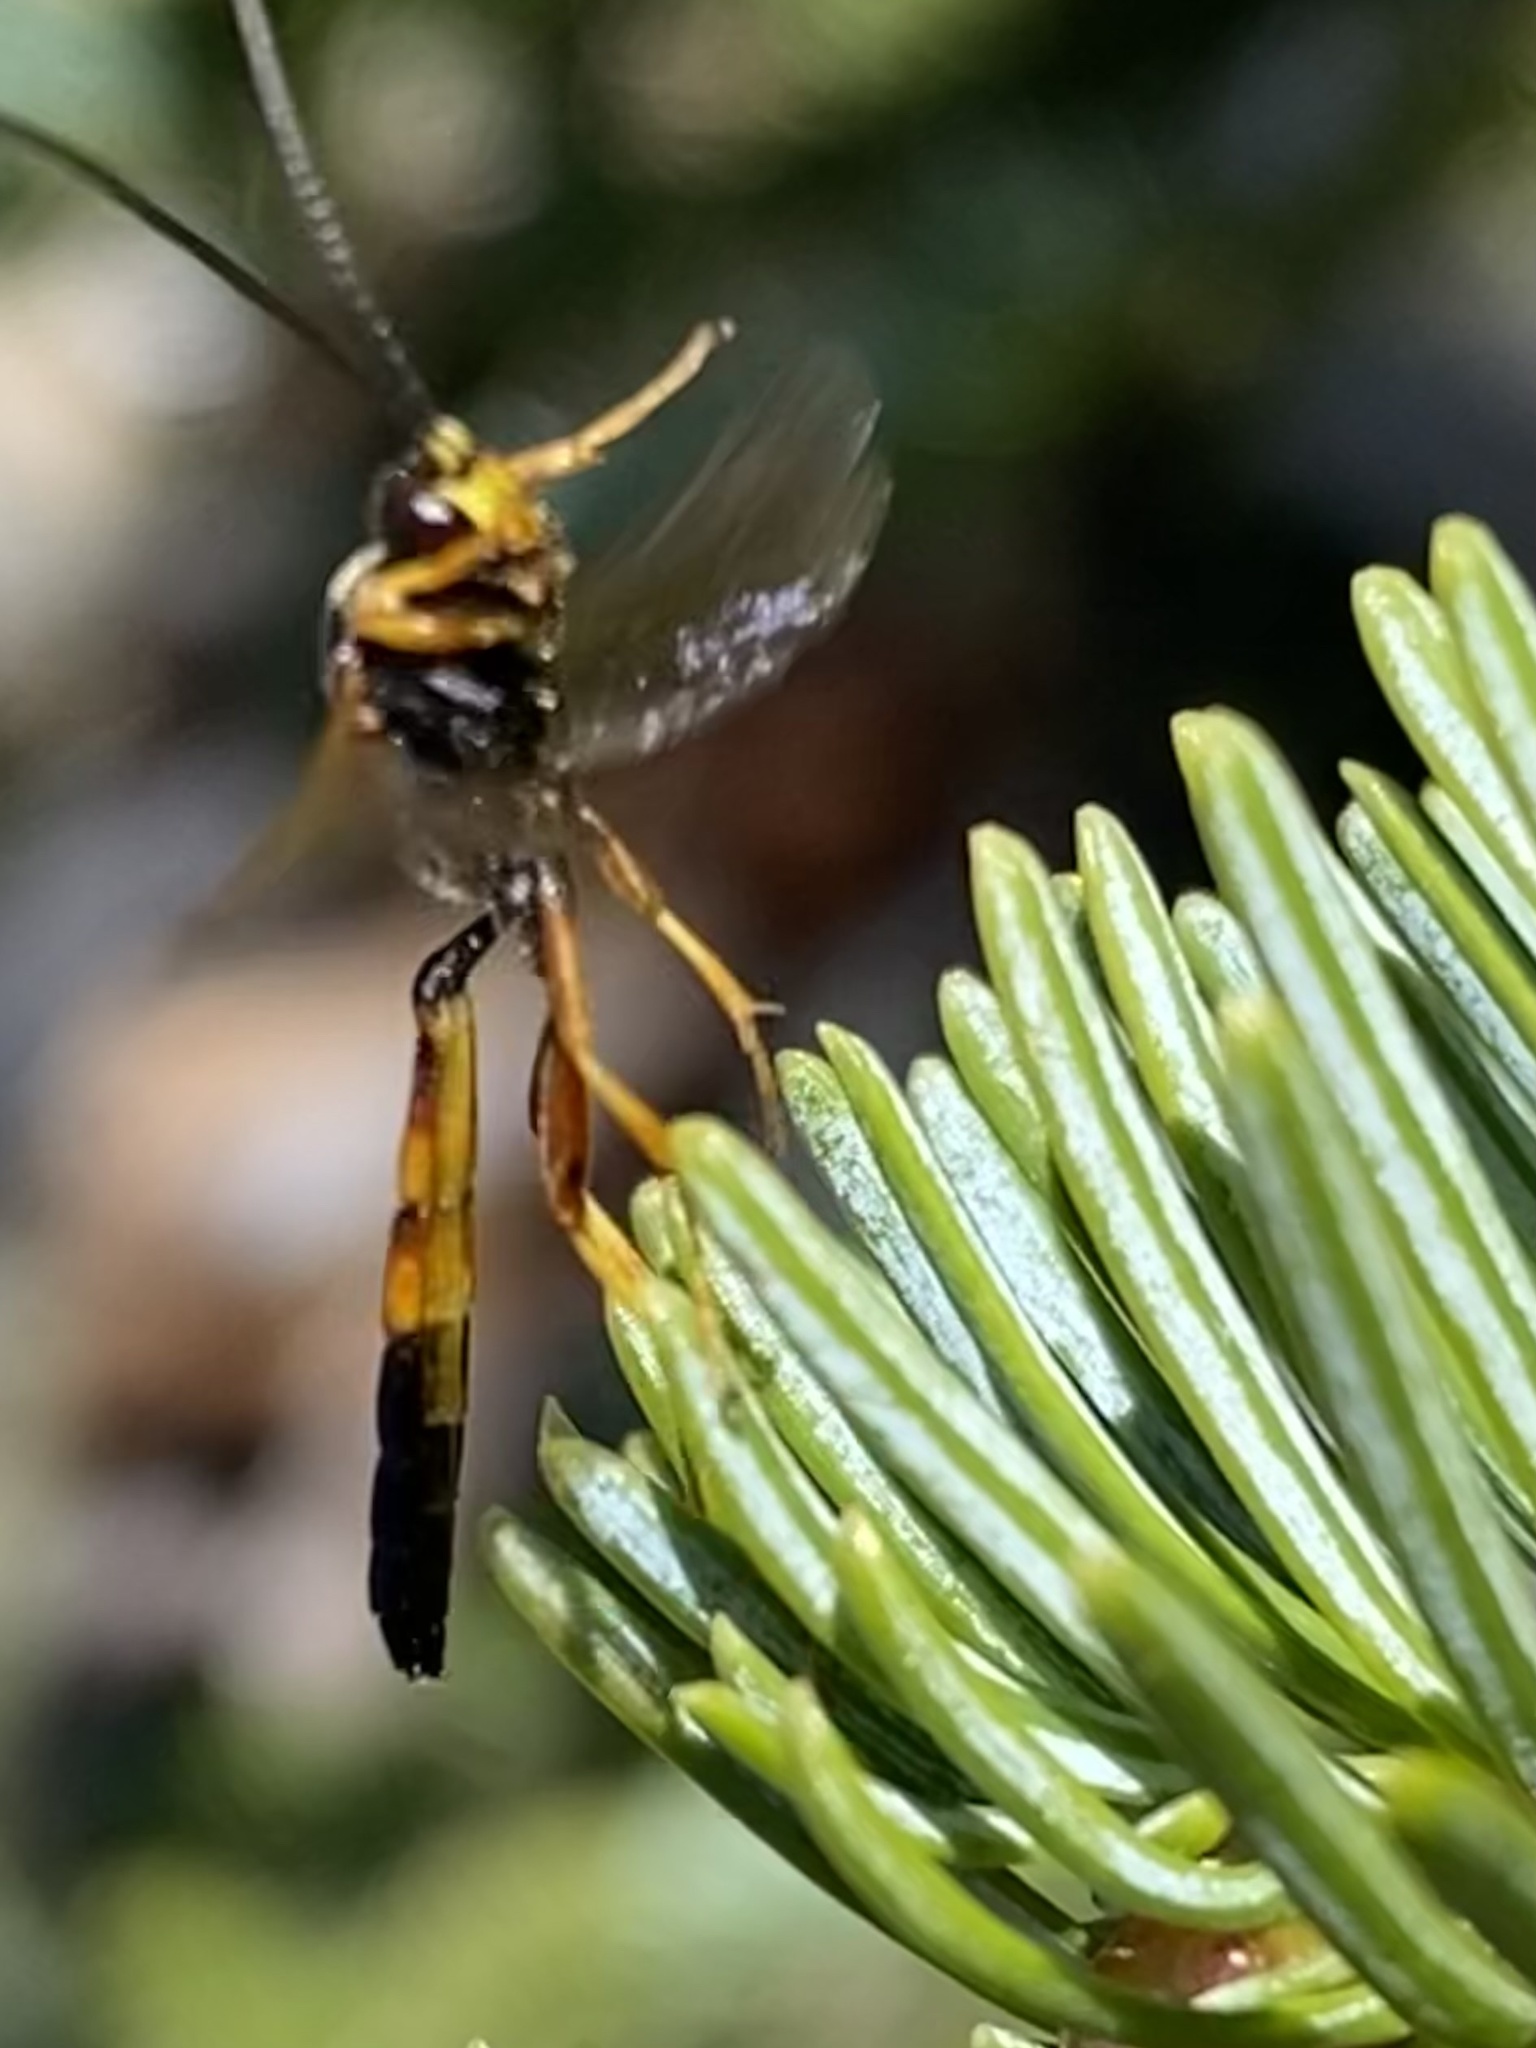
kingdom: Animalia
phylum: Arthropoda
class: Insecta
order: Hymenoptera
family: Ichneumonidae
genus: Ichneumon
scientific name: Ichneumon
